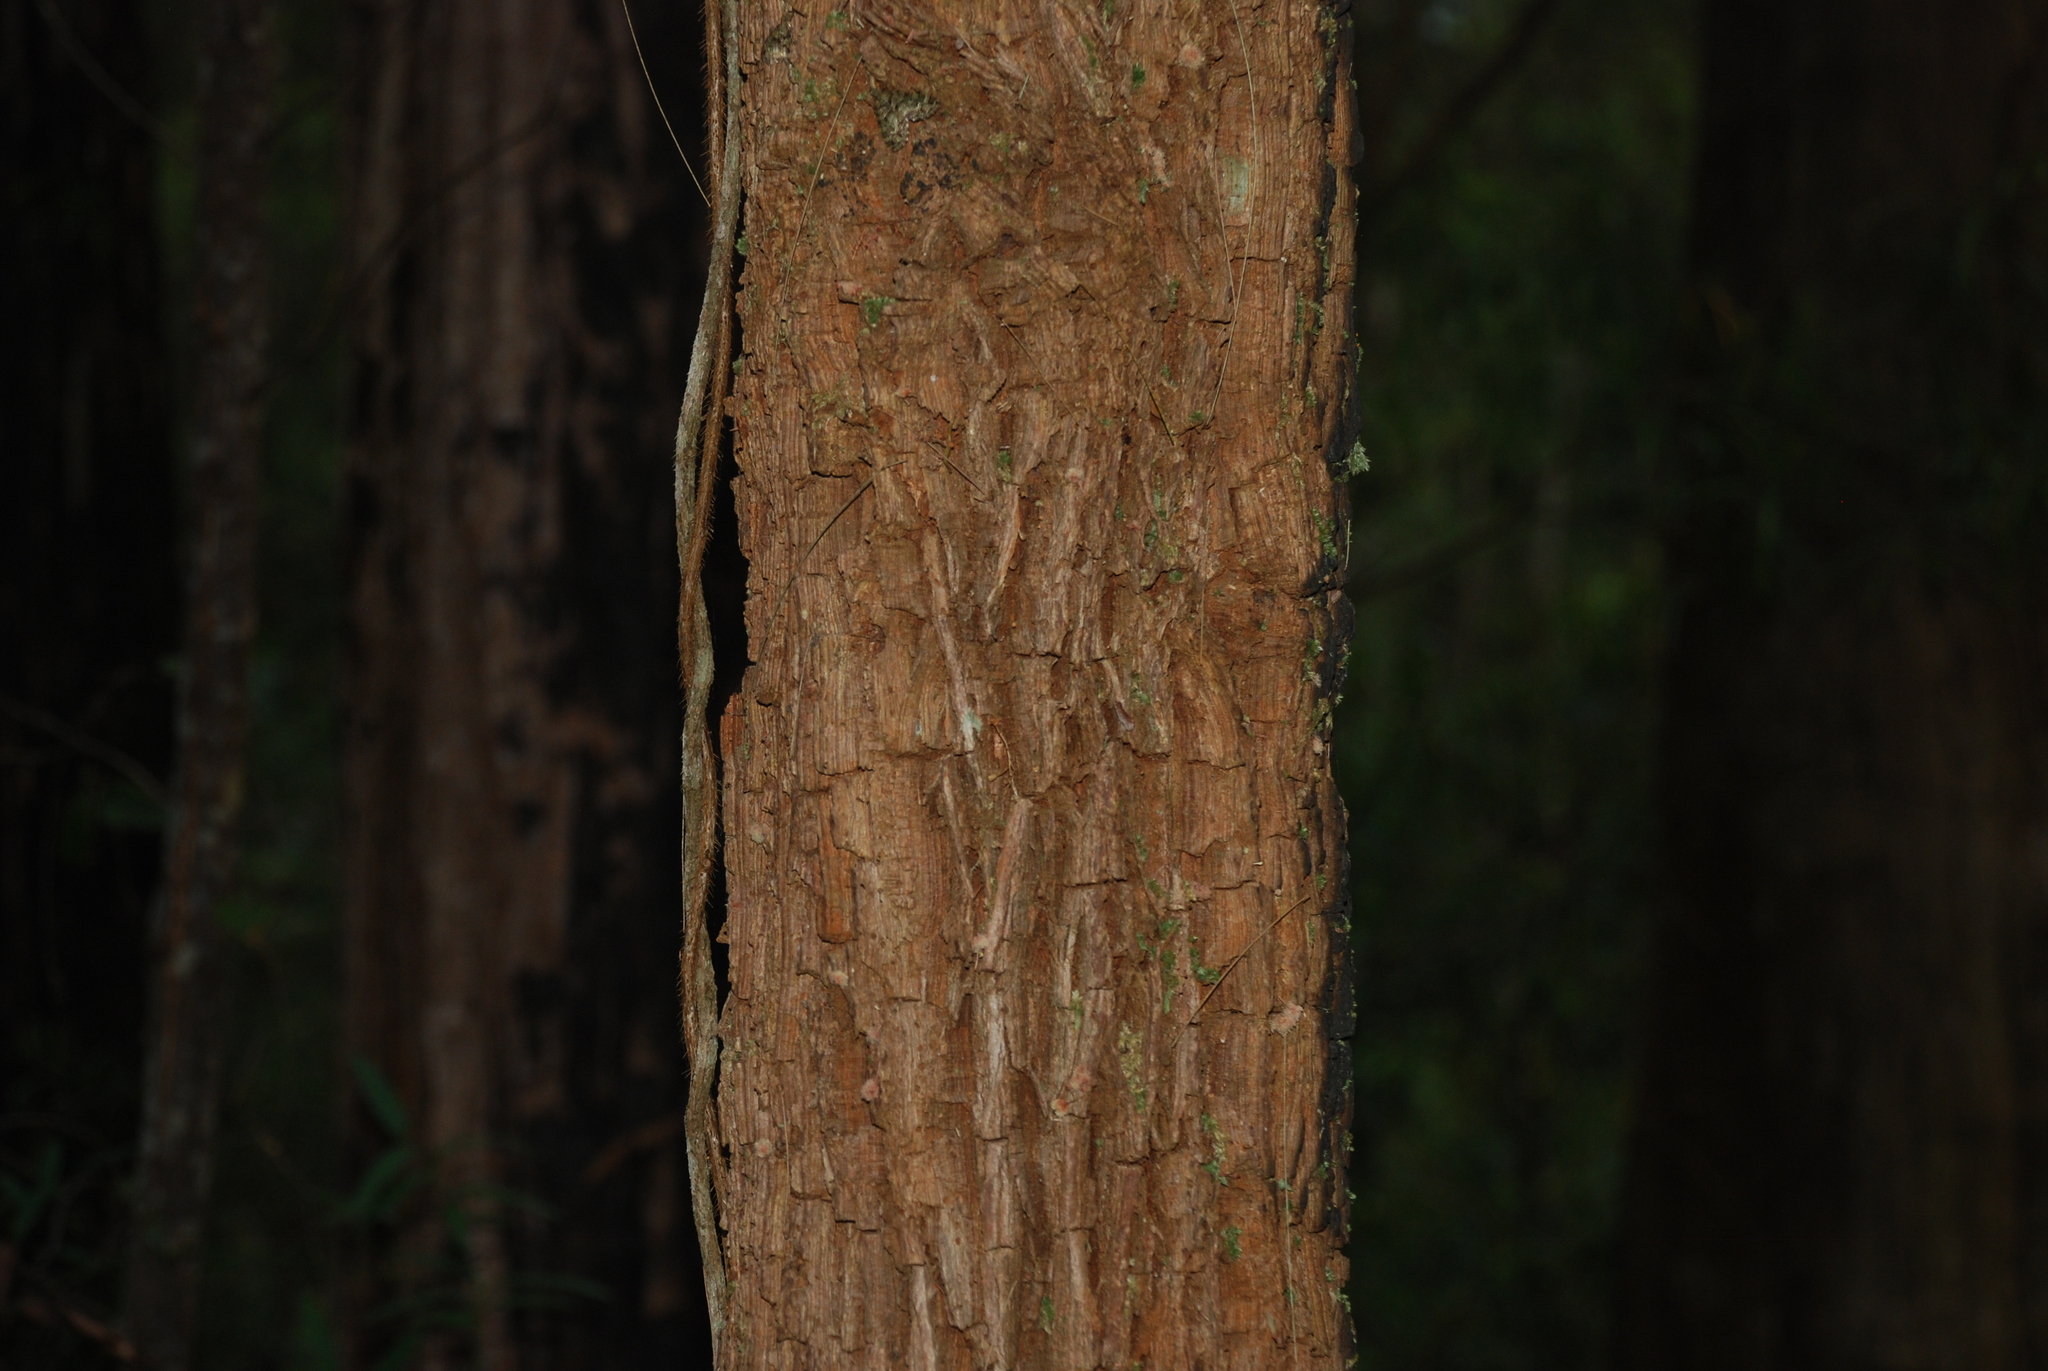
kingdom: Plantae
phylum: Tracheophyta
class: Magnoliopsida
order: Fagales
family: Casuarinaceae
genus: Allocasuarina
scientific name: Allocasuarina torulosa
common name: Forest-oak
